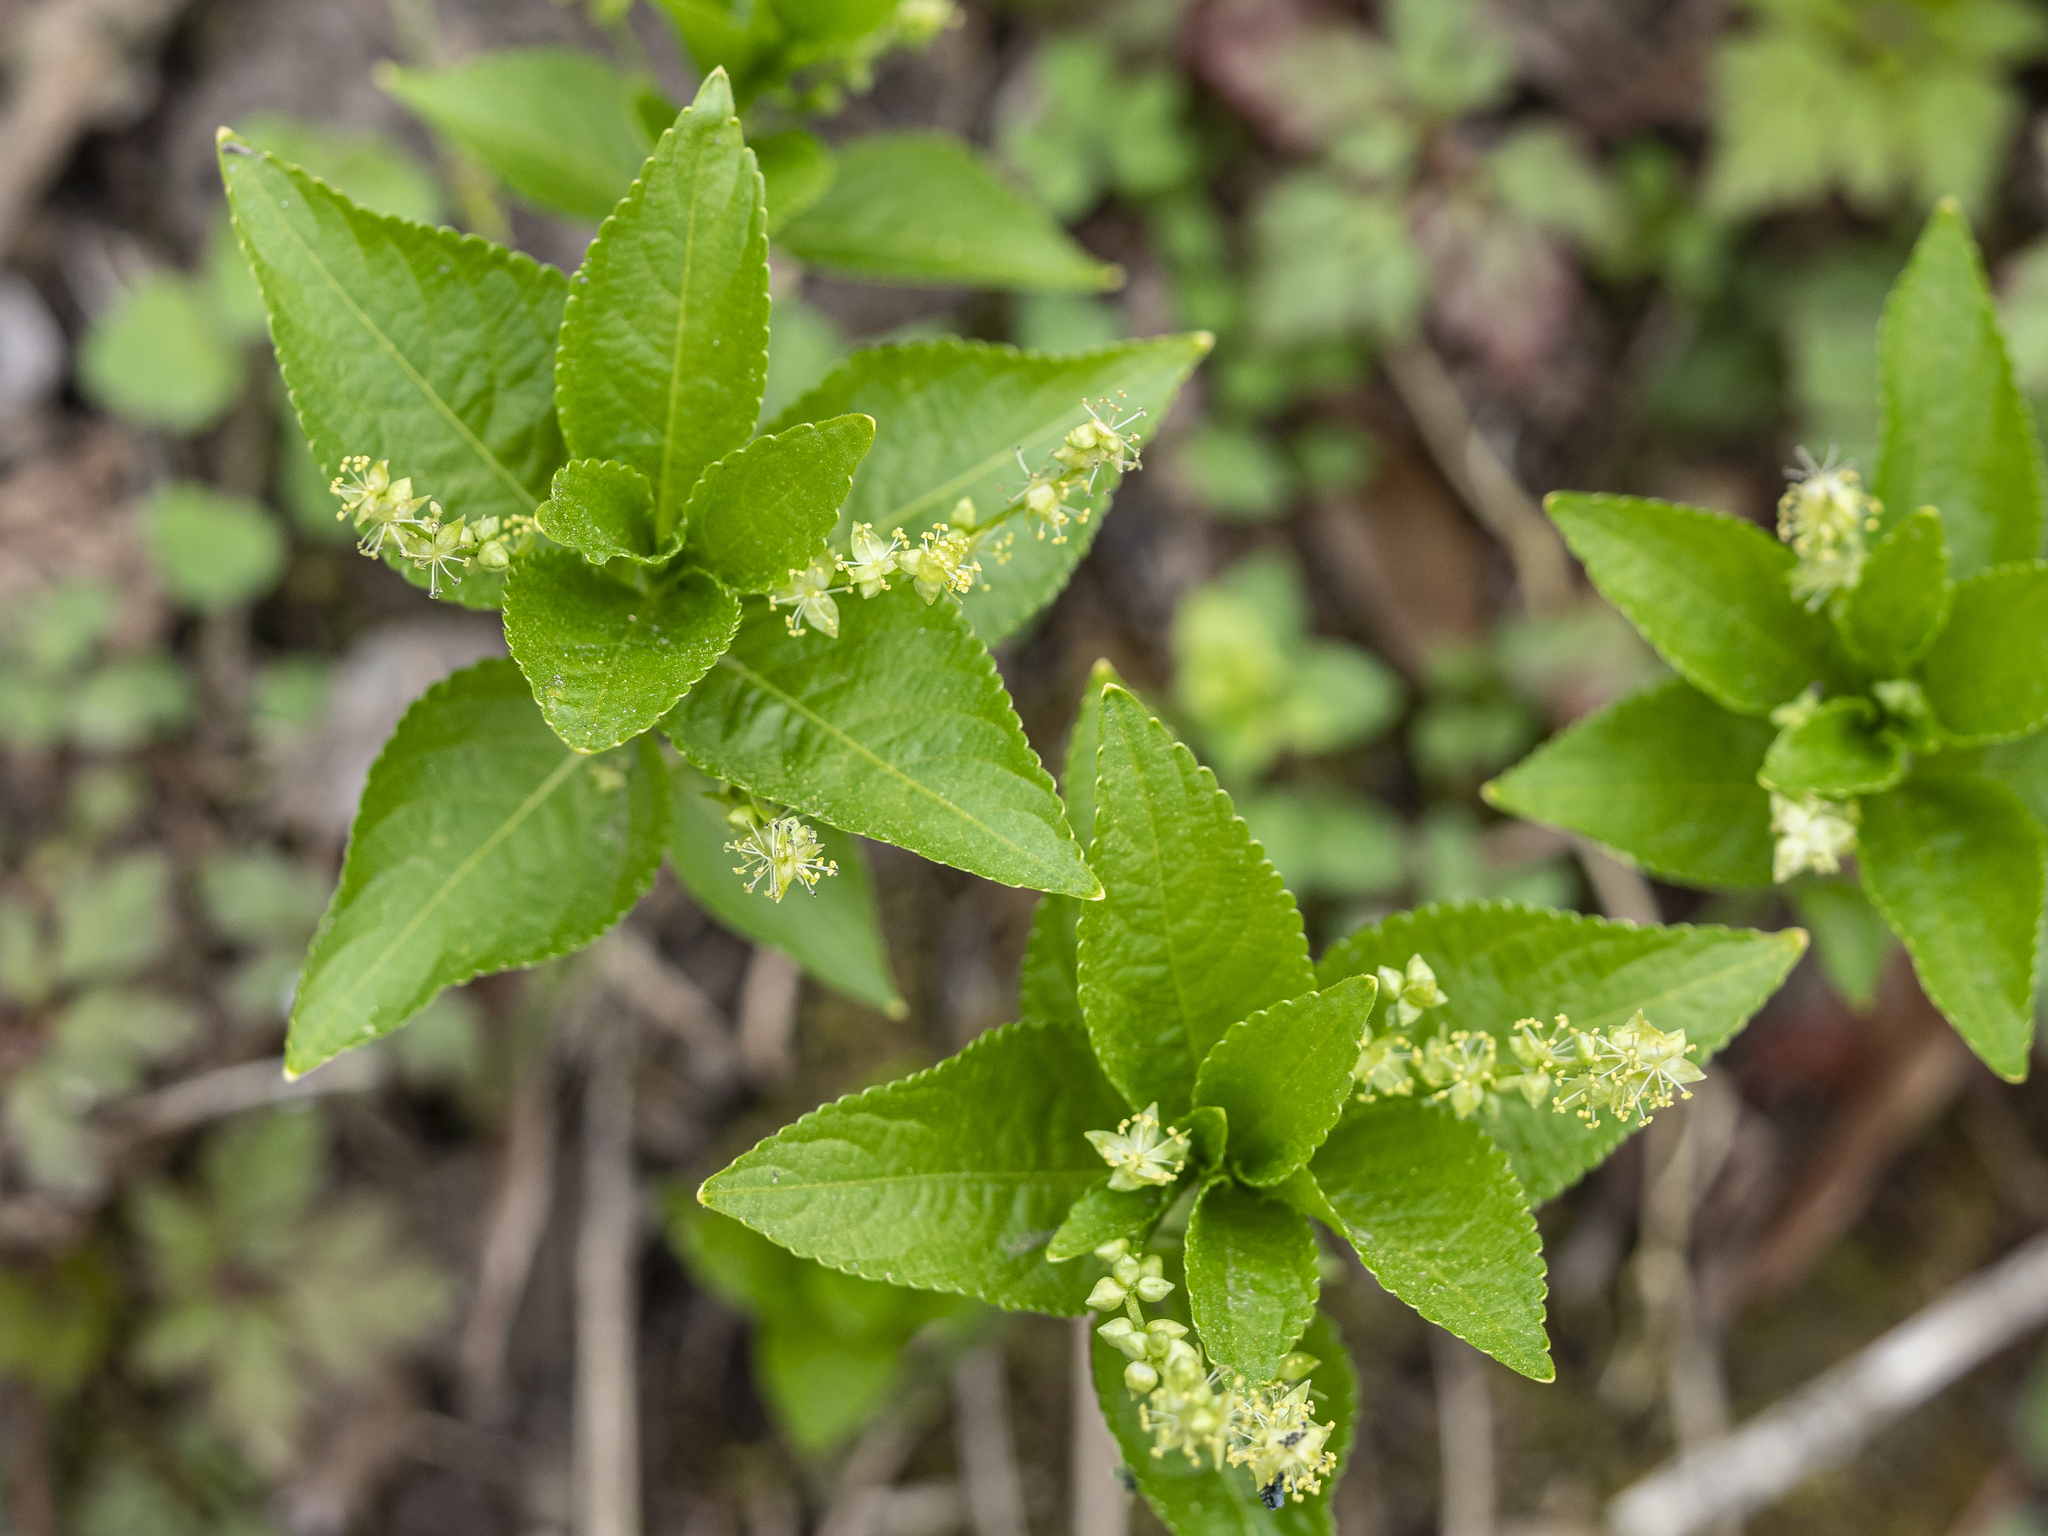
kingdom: Plantae
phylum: Tracheophyta
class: Magnoliopsida
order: Malpighiales
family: Euphorbiaceae
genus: Mercurialis
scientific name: Mercurialis perennis
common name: Dog mercury
